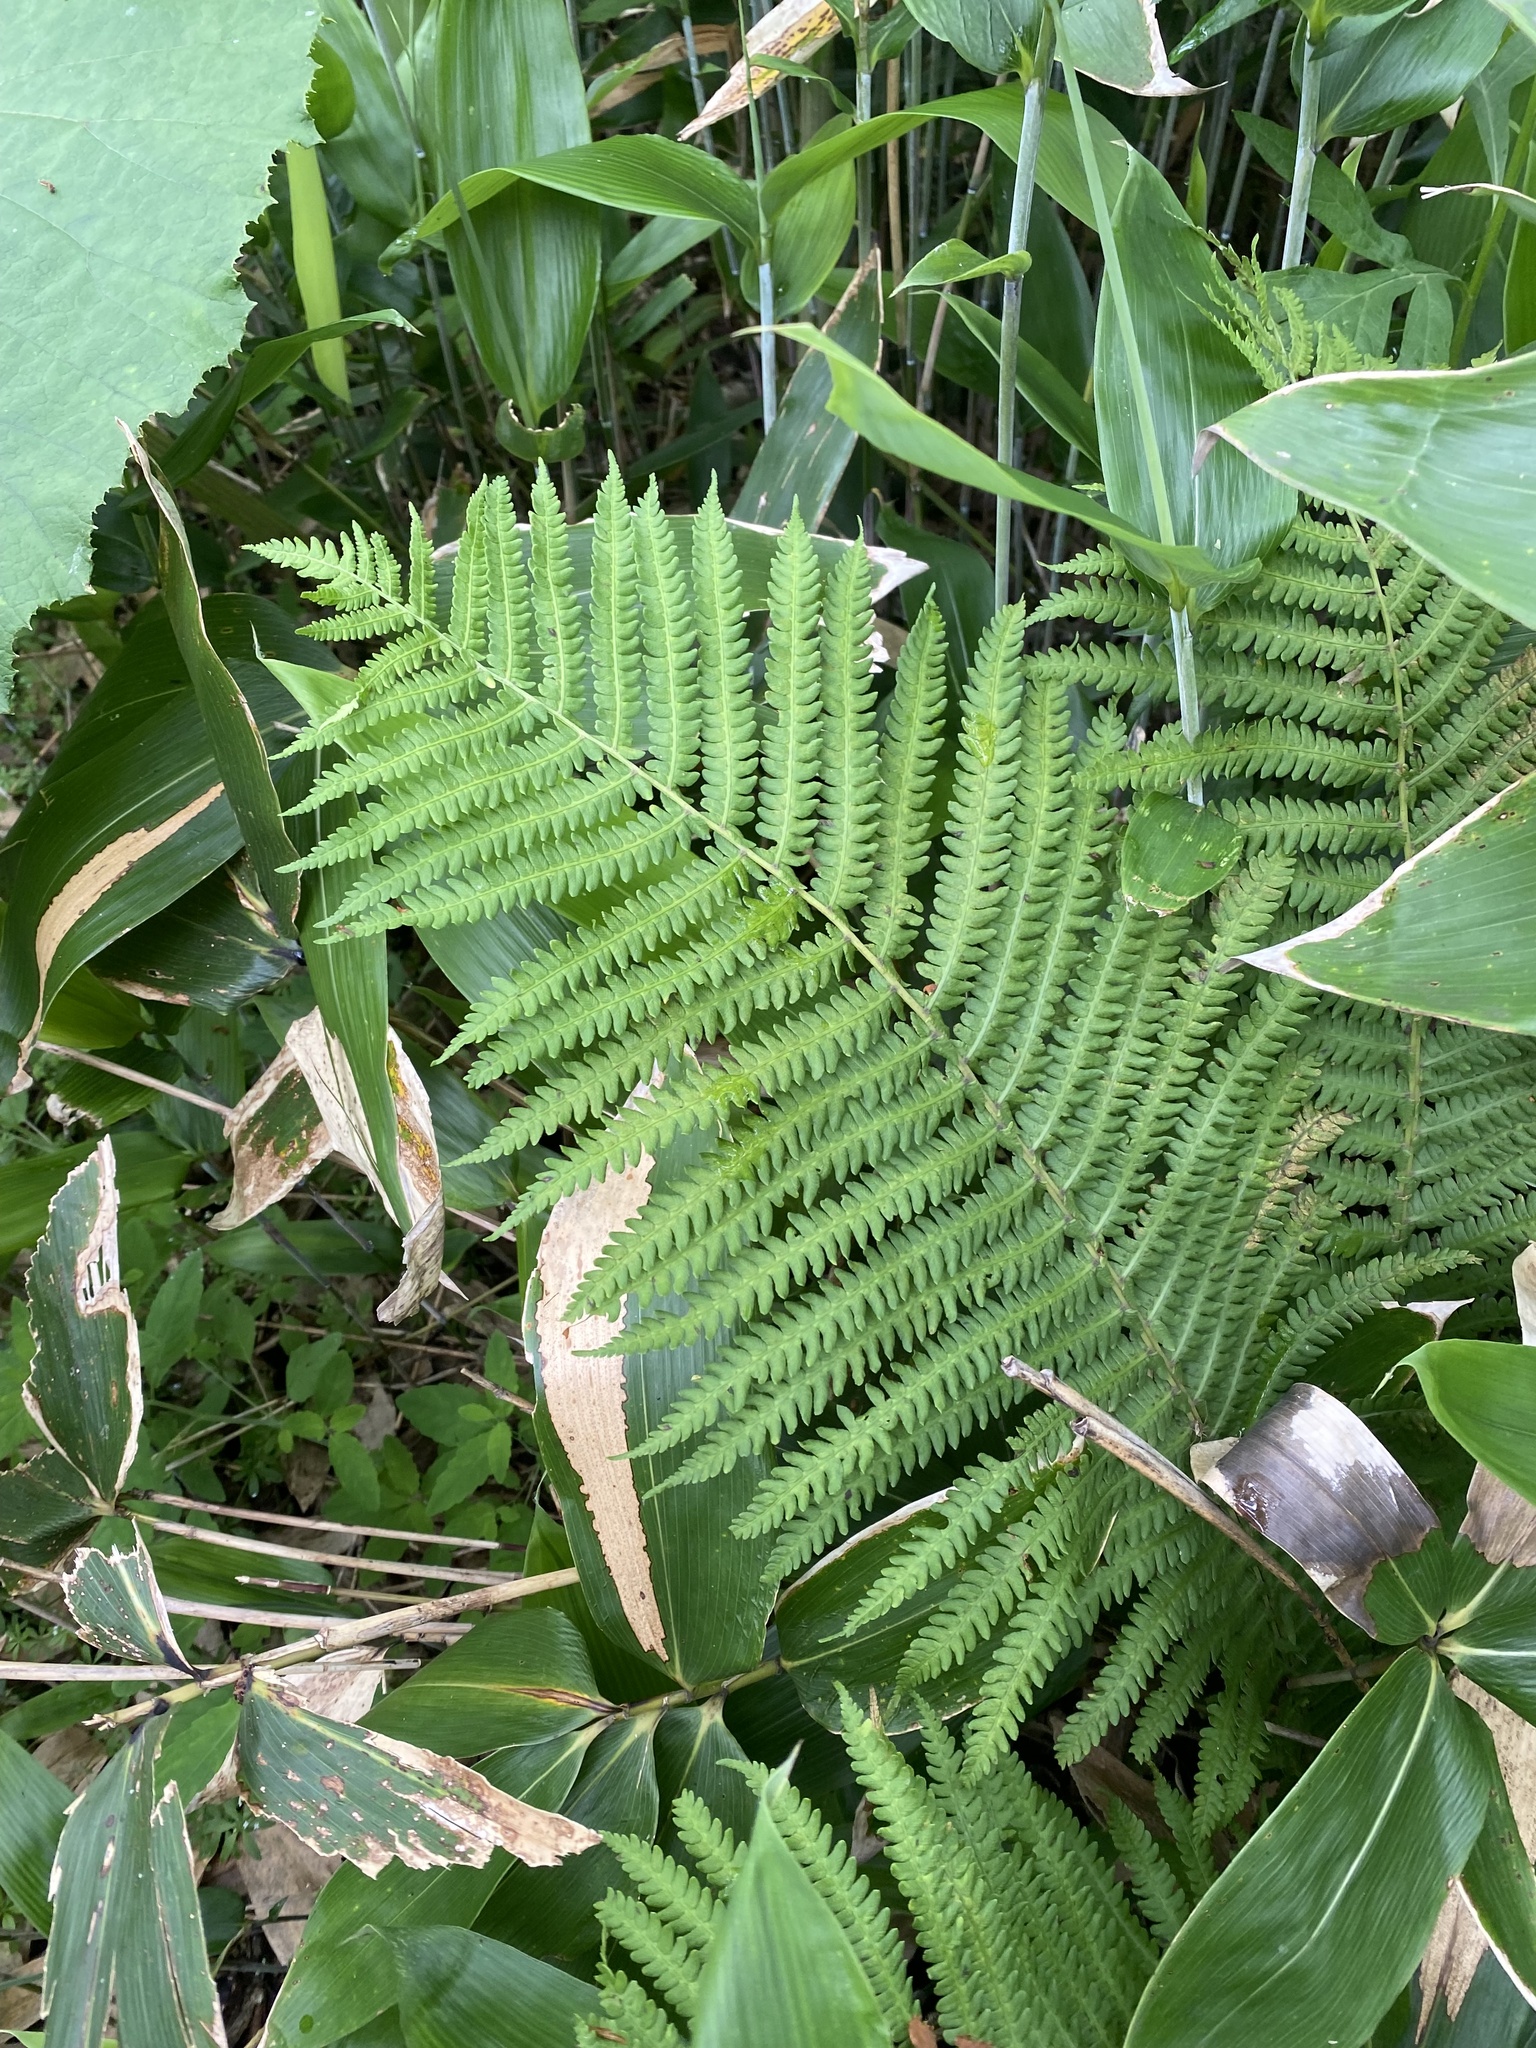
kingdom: Plantae
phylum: Tracheophyta
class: Polypodiopsida
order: Polypodiales
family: Onocleaceae
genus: Matteuccia
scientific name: Matteuccia struthiopteris
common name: Ostrich fern
